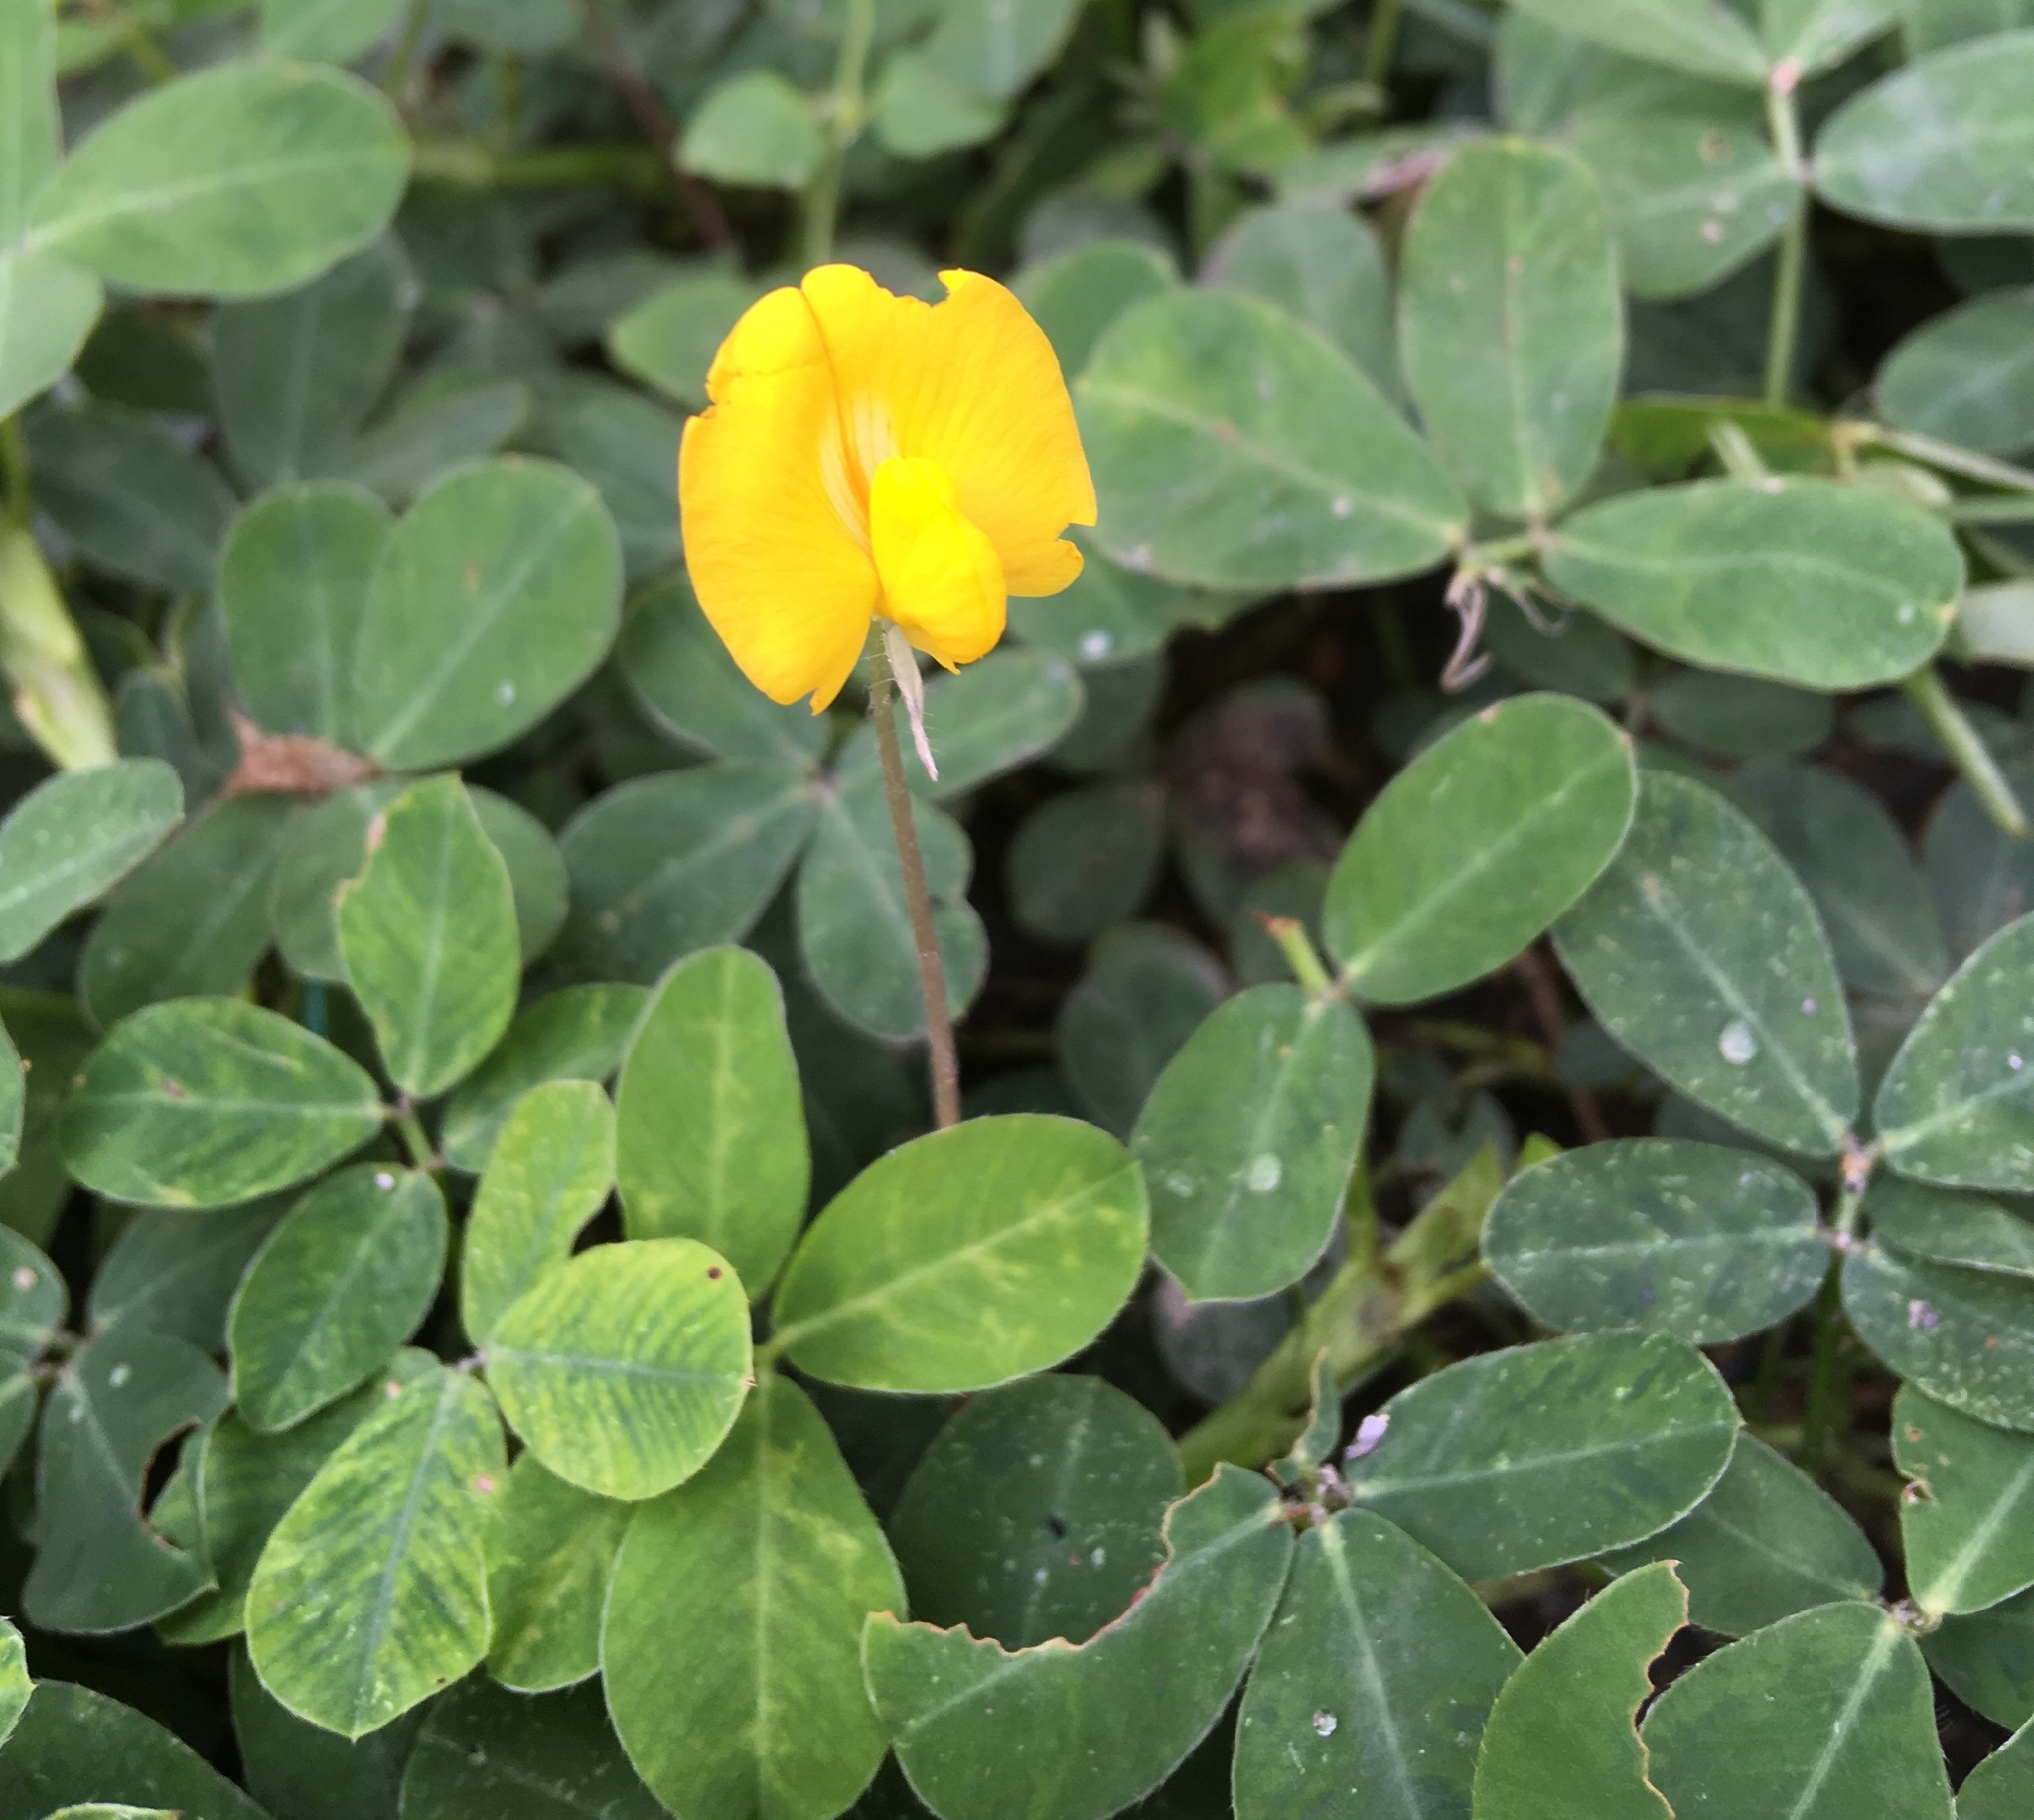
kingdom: Plantae
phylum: Tracheophyta
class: Magnoliopsida
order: Fabales
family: Fabaceae
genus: Arachis
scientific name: Arachis pintoi
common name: Pinto peanut
